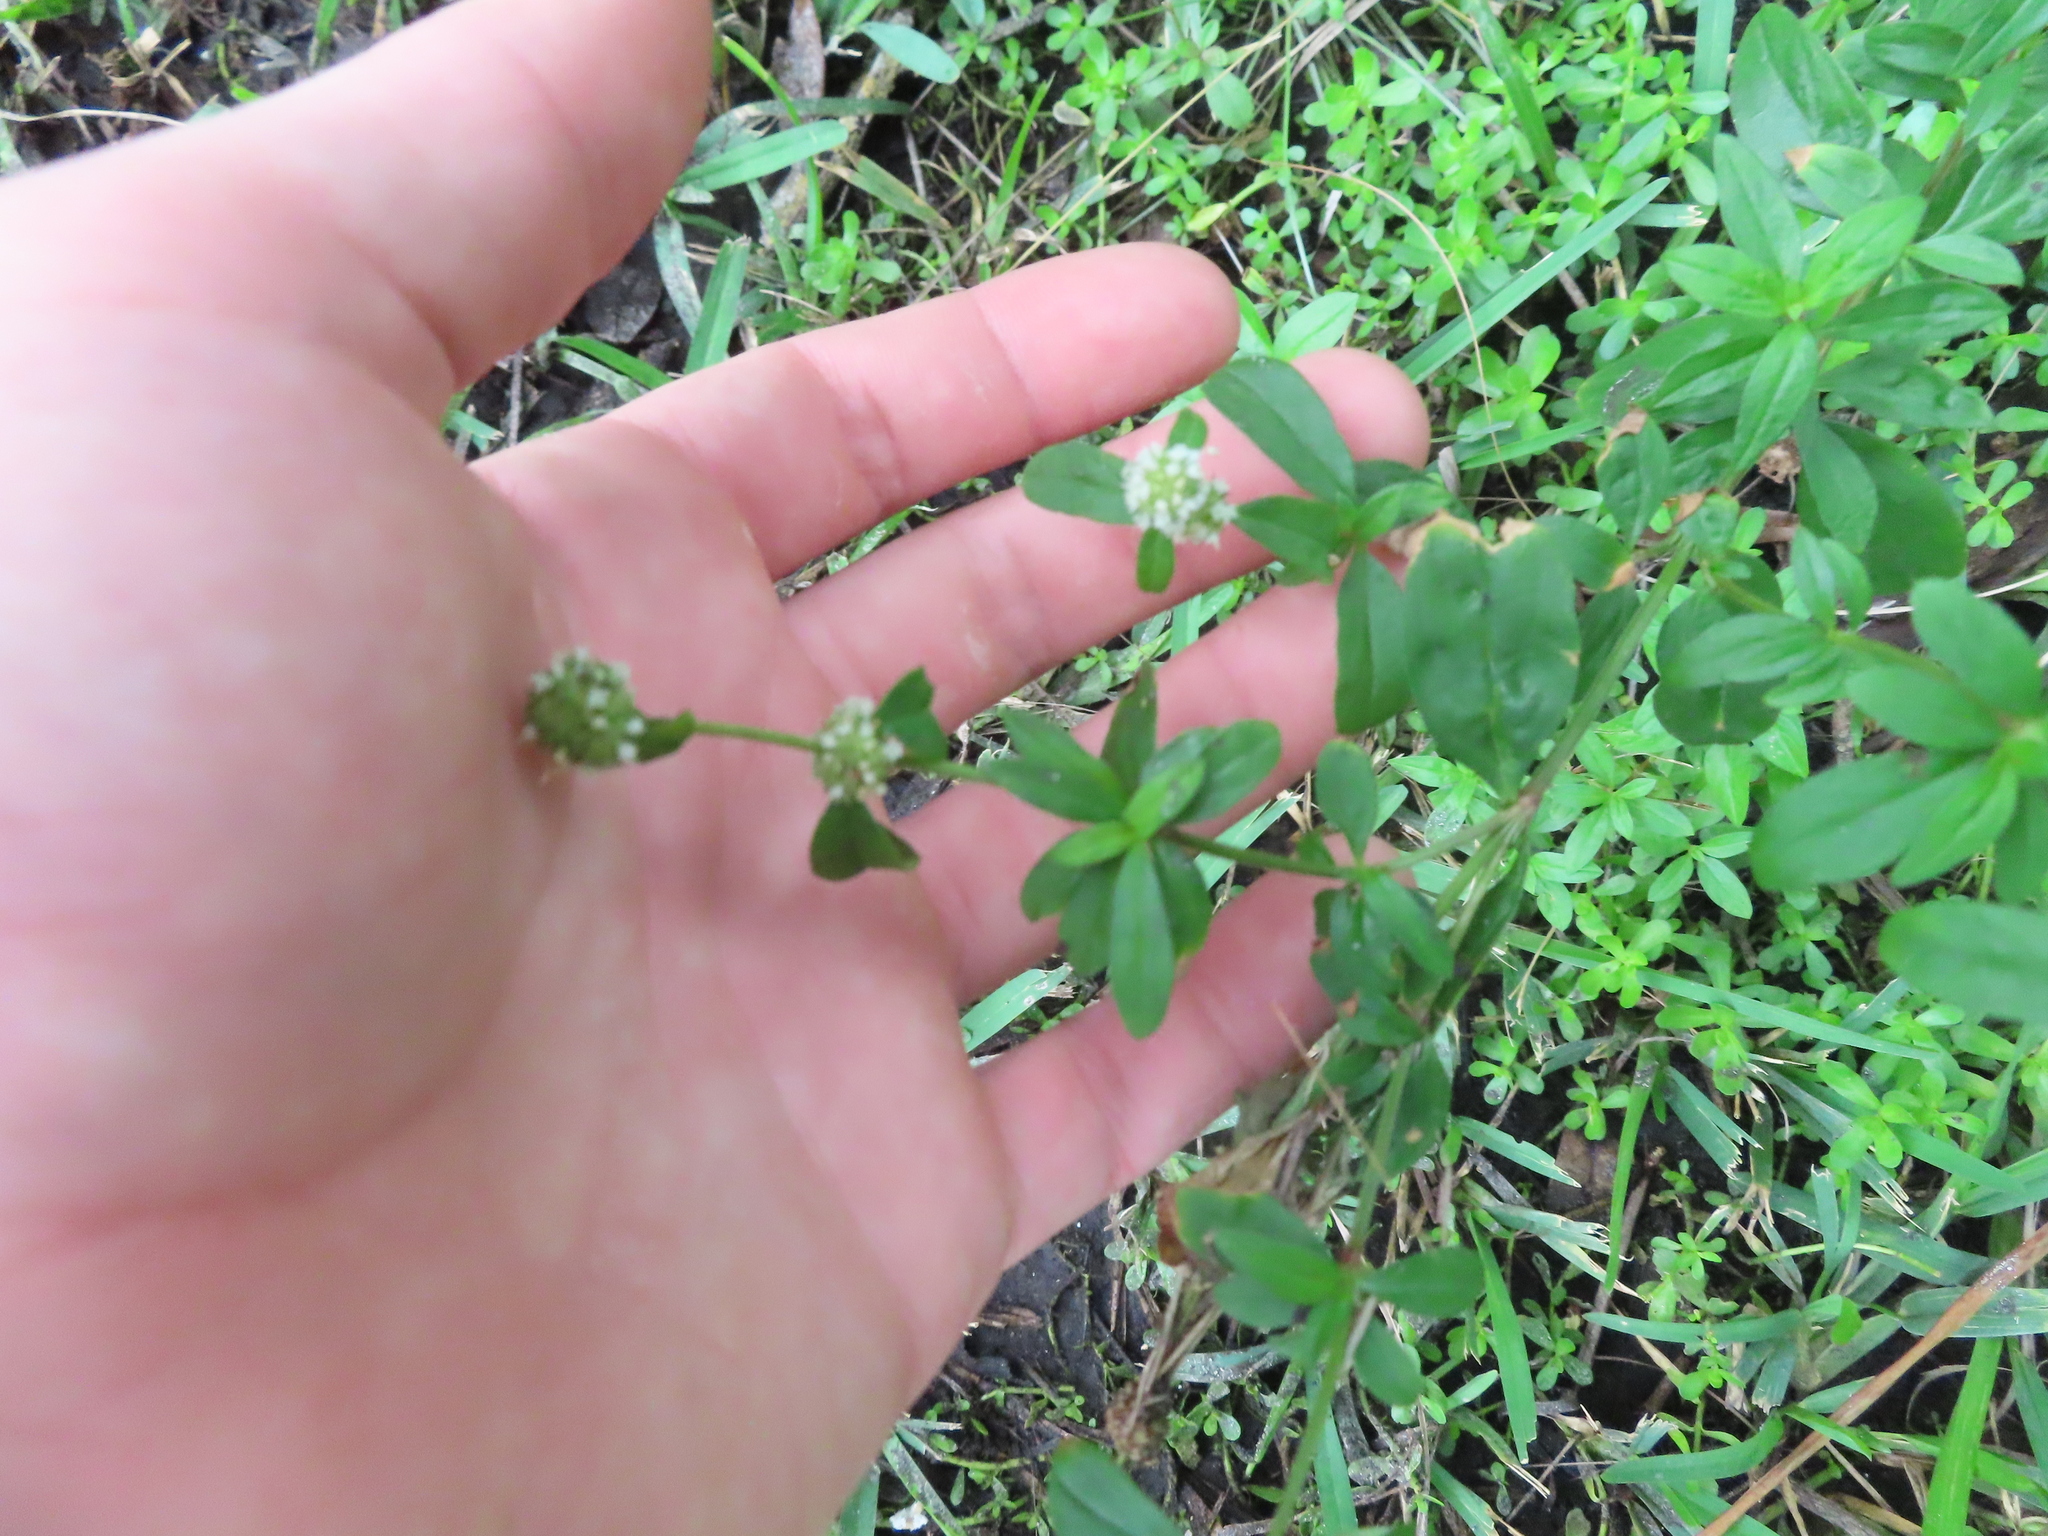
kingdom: Plantae
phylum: Tracheophyta
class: Magnoliopsida
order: Gentianales
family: Rubiaceae
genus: Spermacoce
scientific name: Spermacoce verticillata
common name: Shrubby false buttonweed
